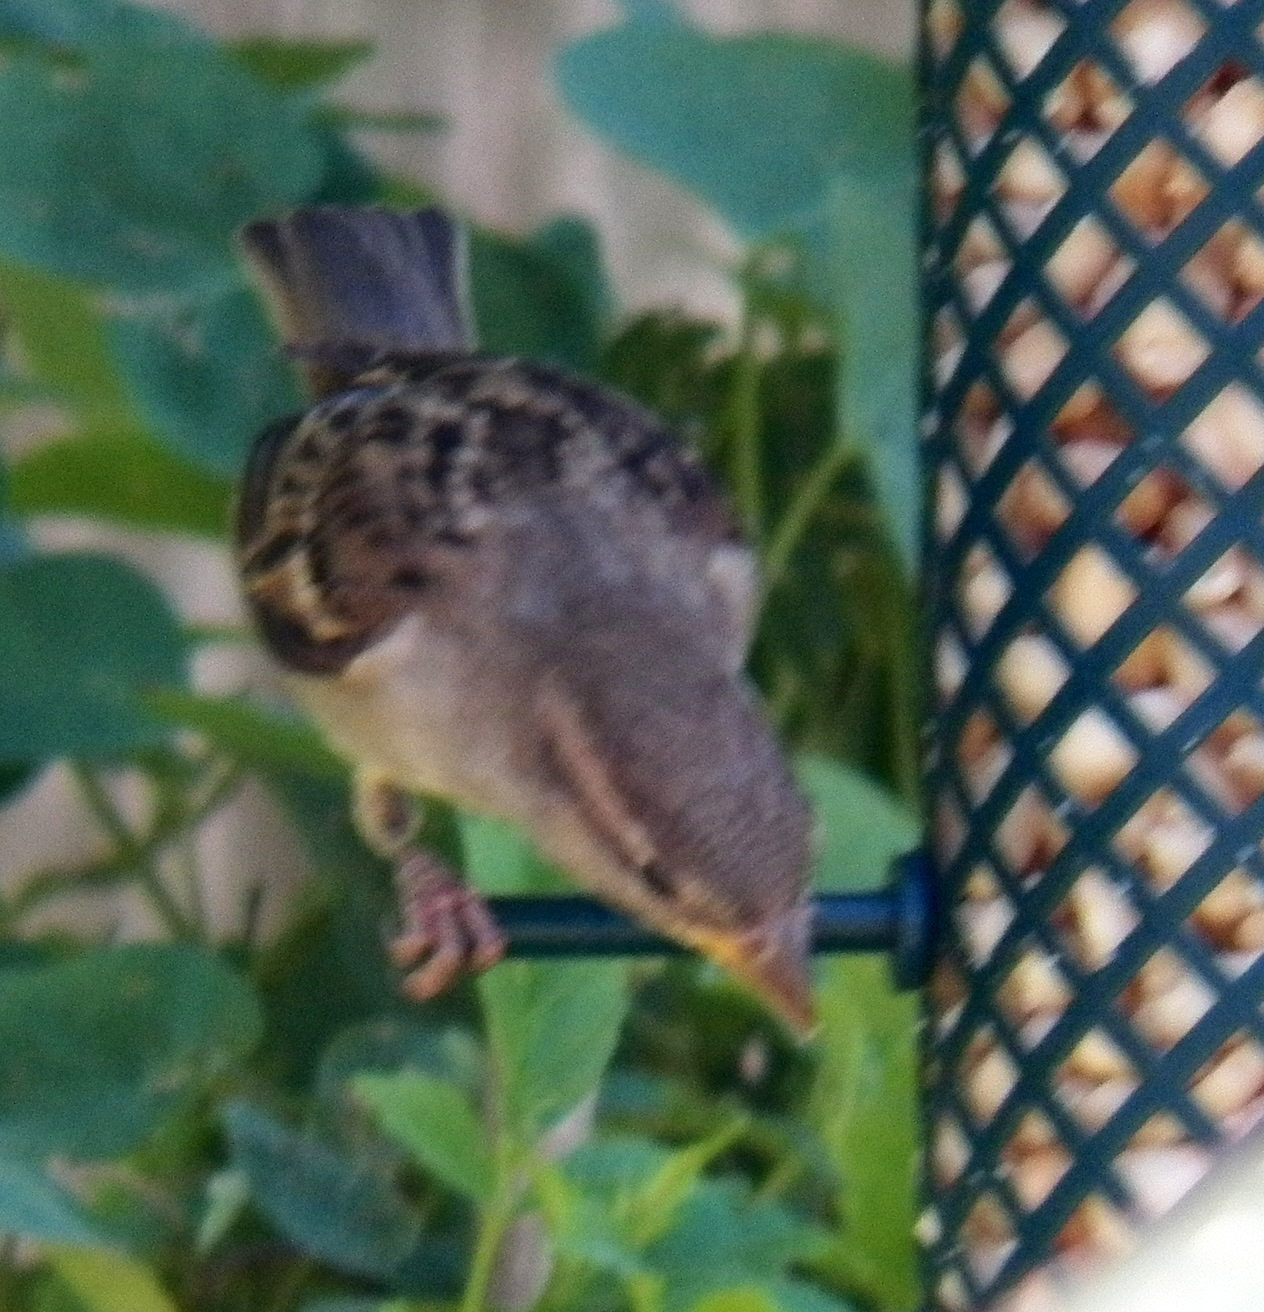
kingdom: Animalia
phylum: Chordata
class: Aves
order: Passeriformes
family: Passeridae
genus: Passer
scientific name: Passer domesticus
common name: House sparrow
